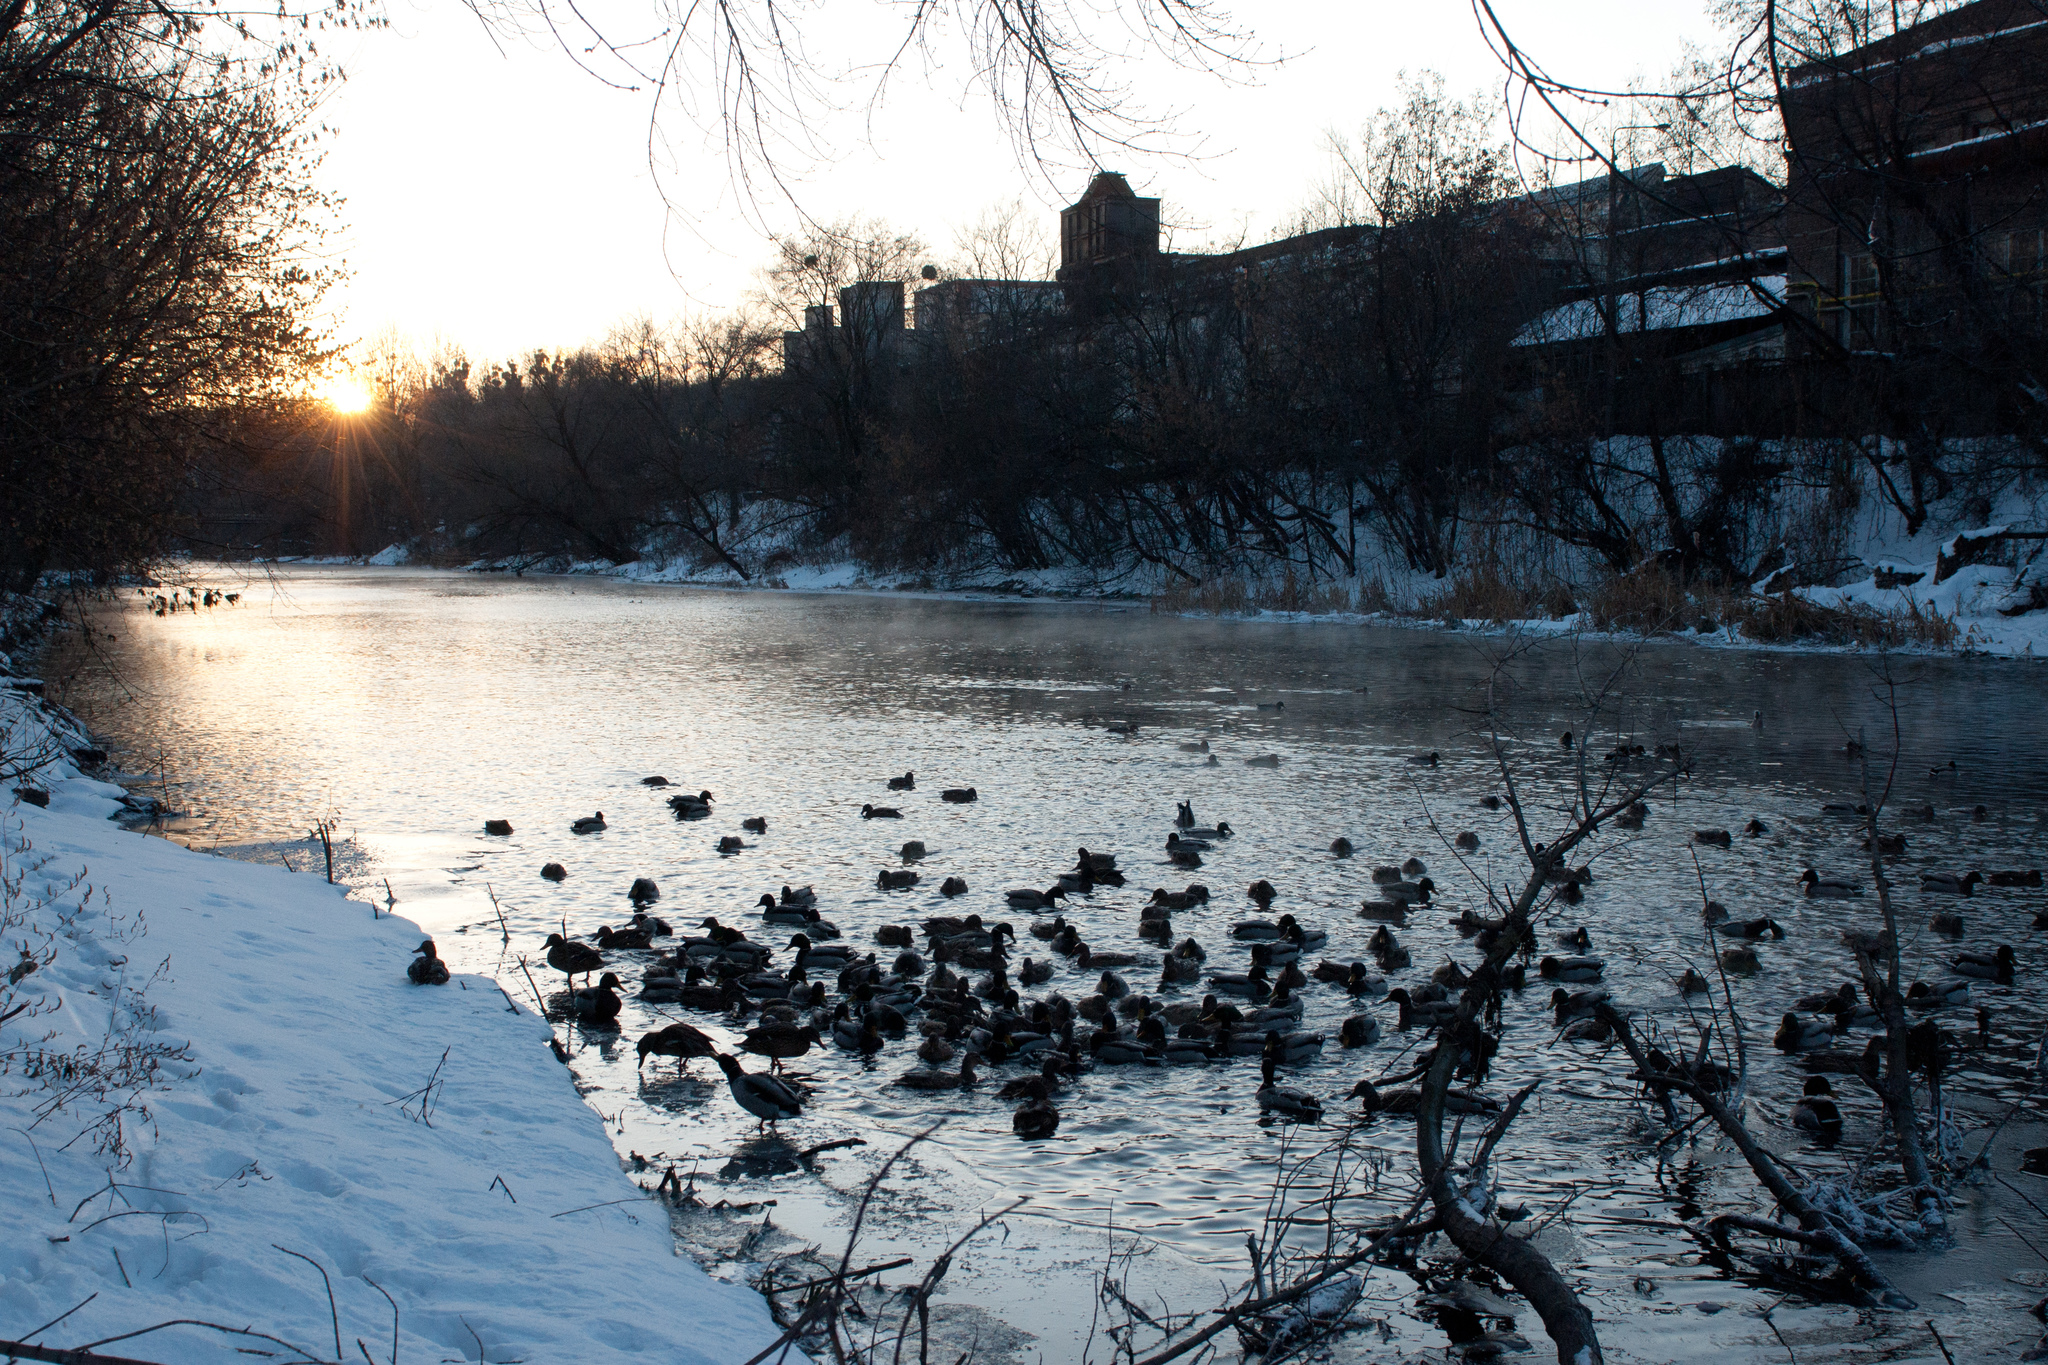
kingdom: Animalia
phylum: Chordata
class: Aves
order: Anseriformes
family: Anatidae
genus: Anas
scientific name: Anas platyrhynchos
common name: Mallard
